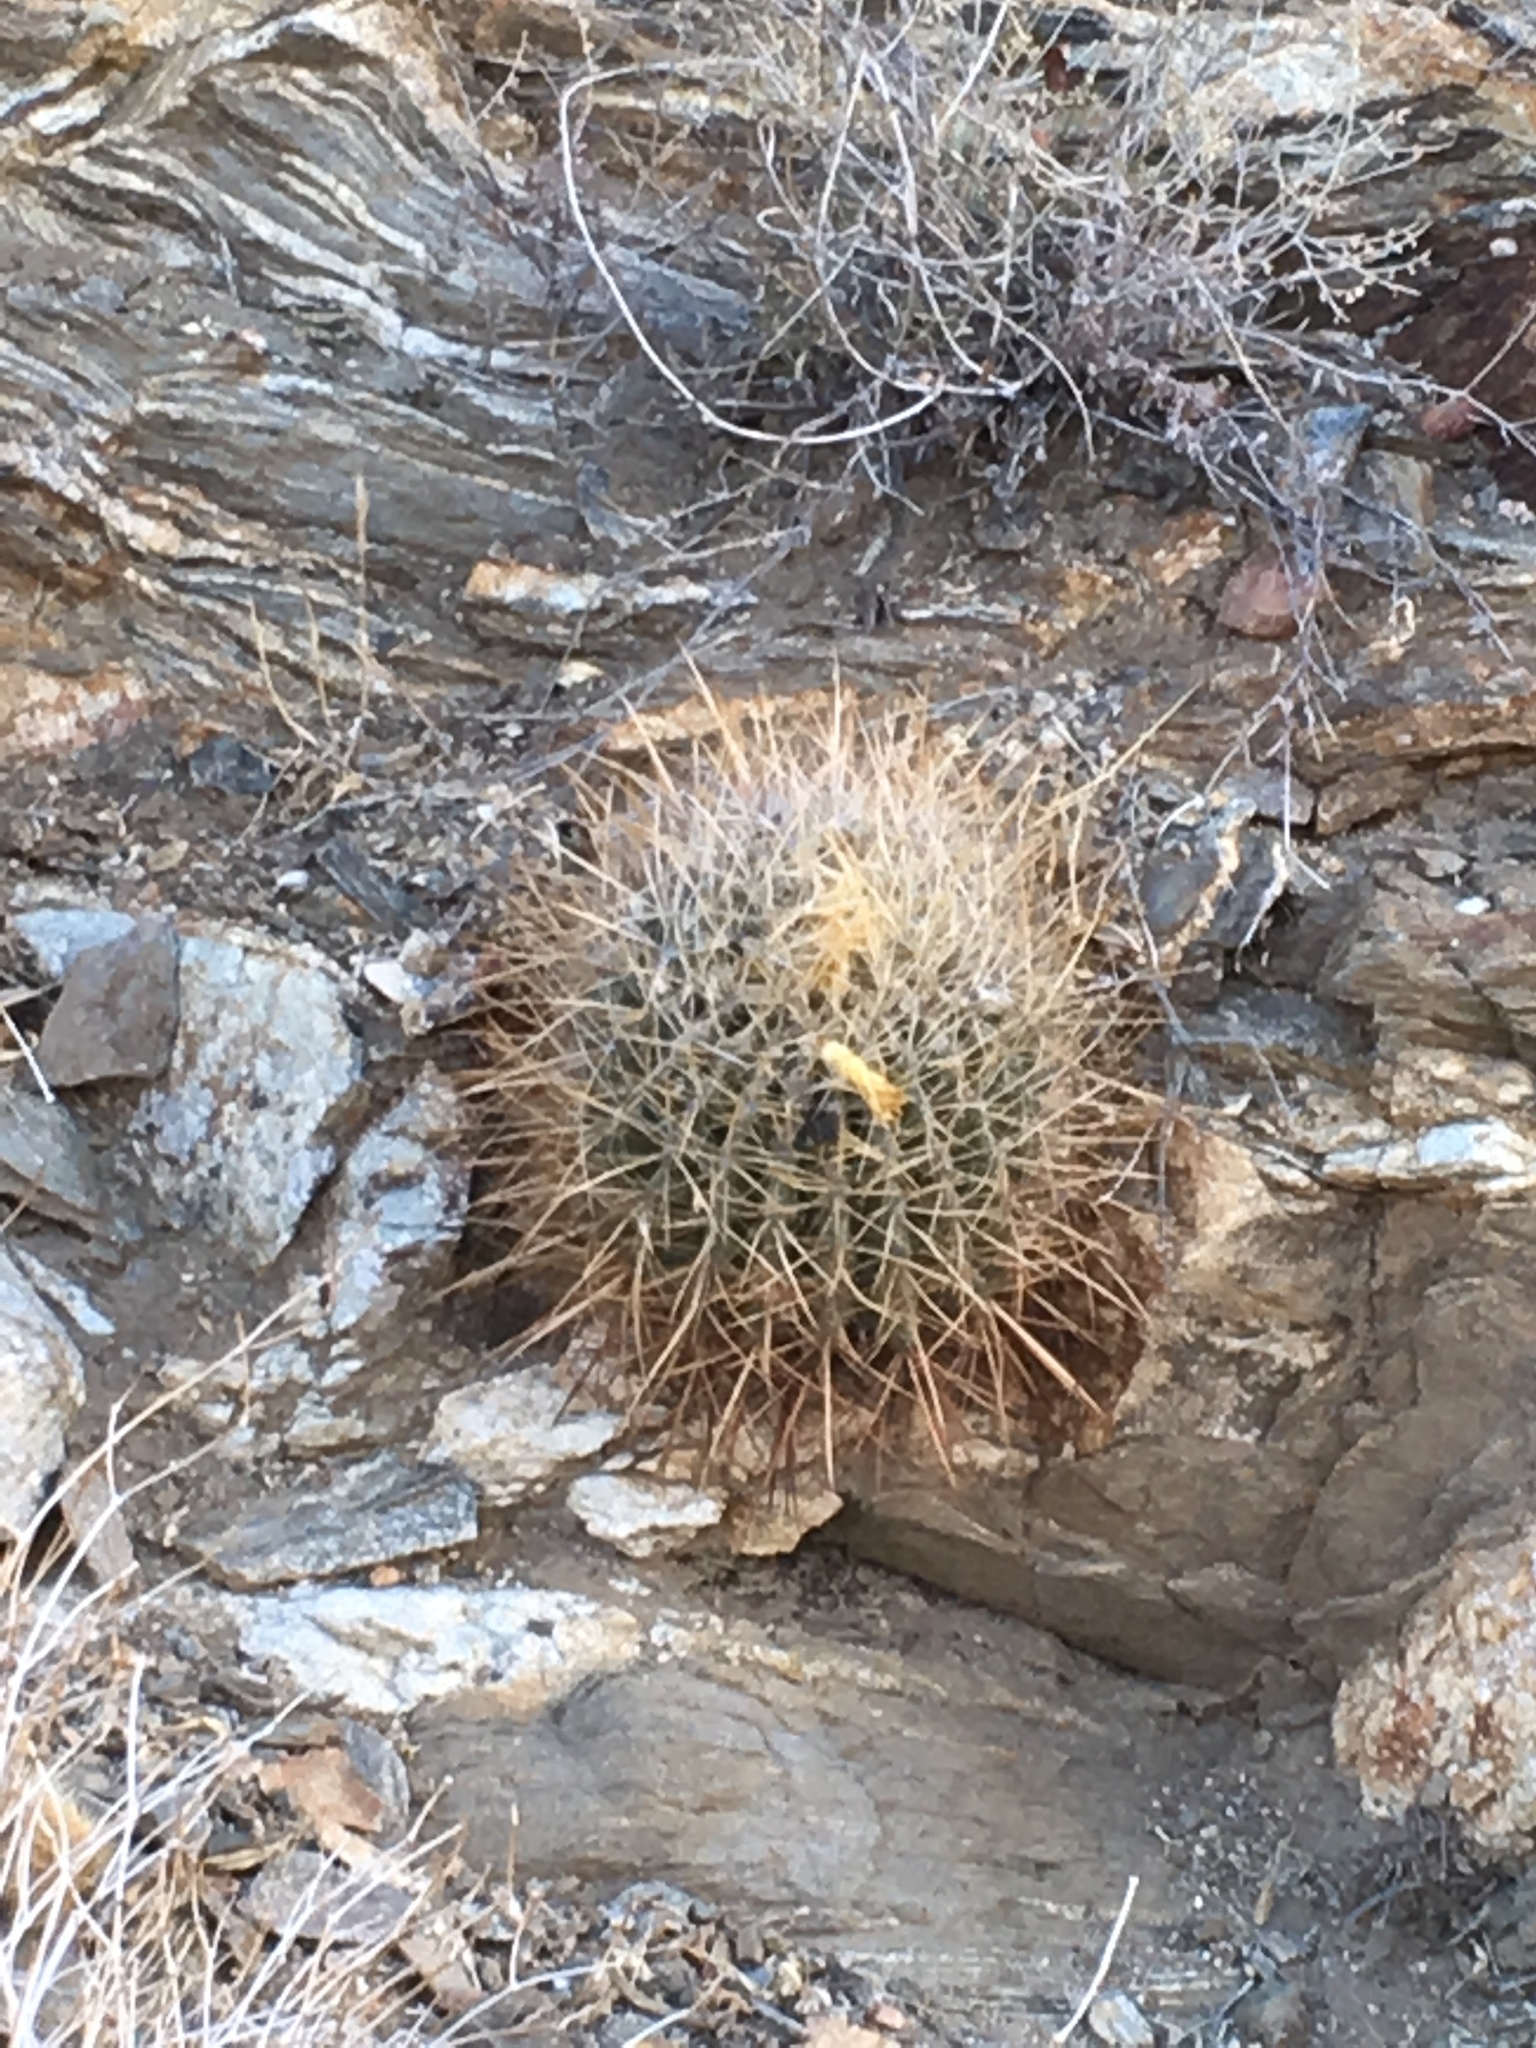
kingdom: Plantae
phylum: Tracheophyta
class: Magnoliopsida
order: Caryophyllales
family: Cactaceae
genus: Ferocactus
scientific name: Ferocactus cylindraceus
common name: California barrel cactus
